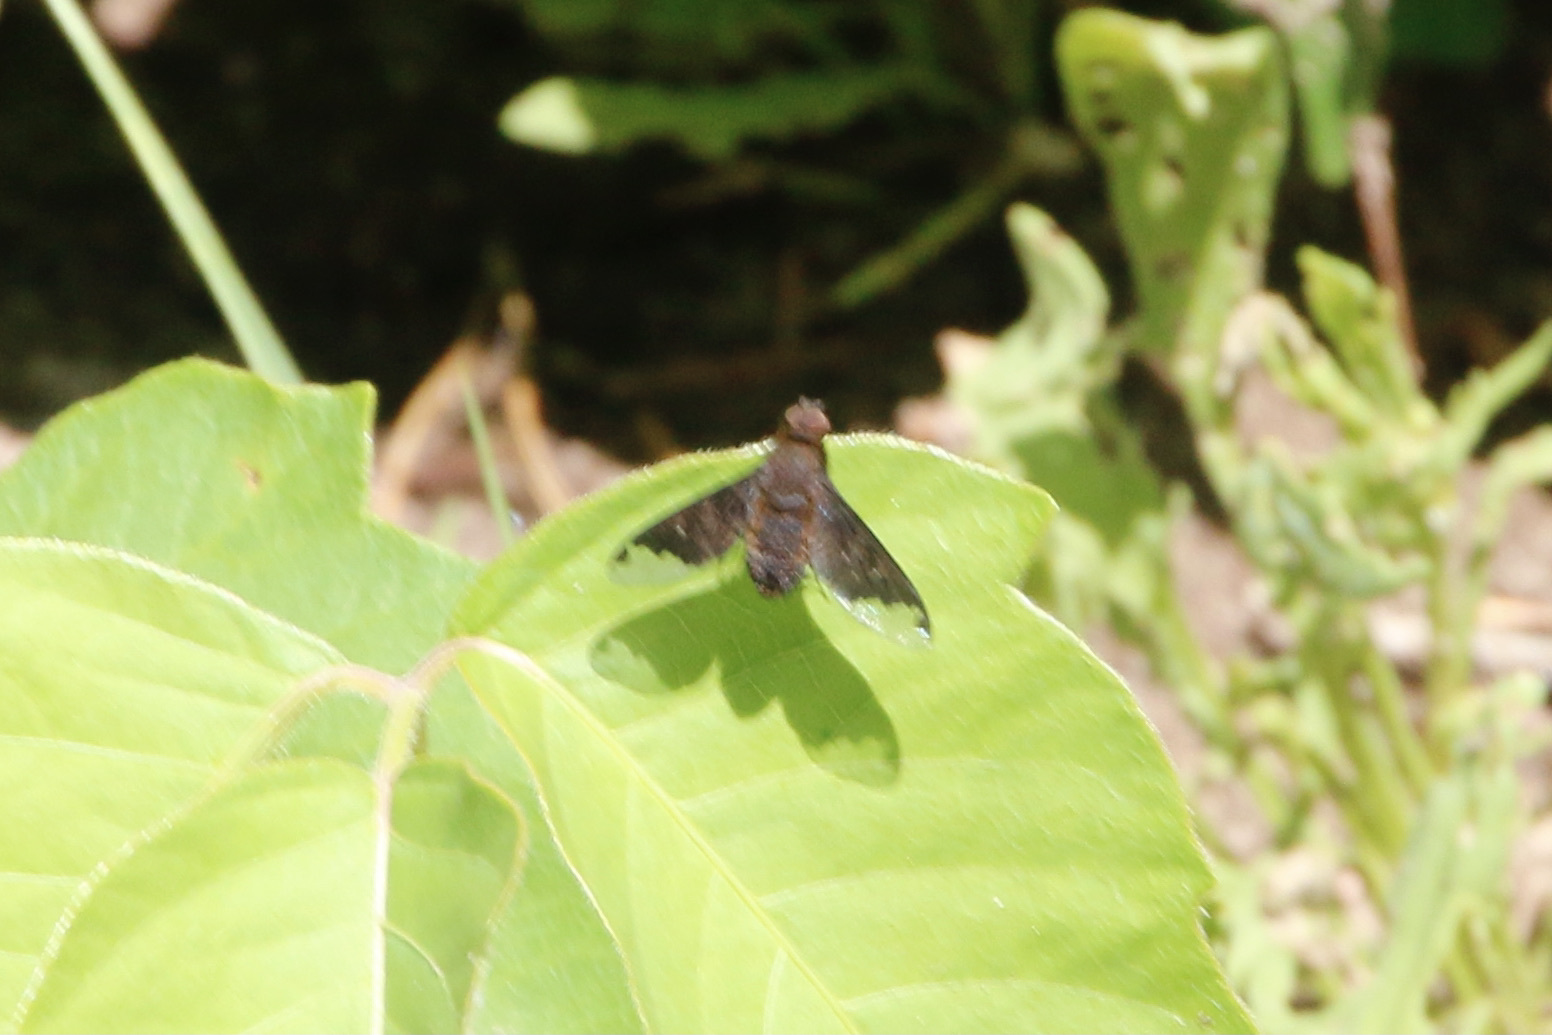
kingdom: Animalia
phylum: Arthropoda
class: Insecta
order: Diptera
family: Bombyliidae
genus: Hemipenthes
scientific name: Hemipenthes sinuosus
